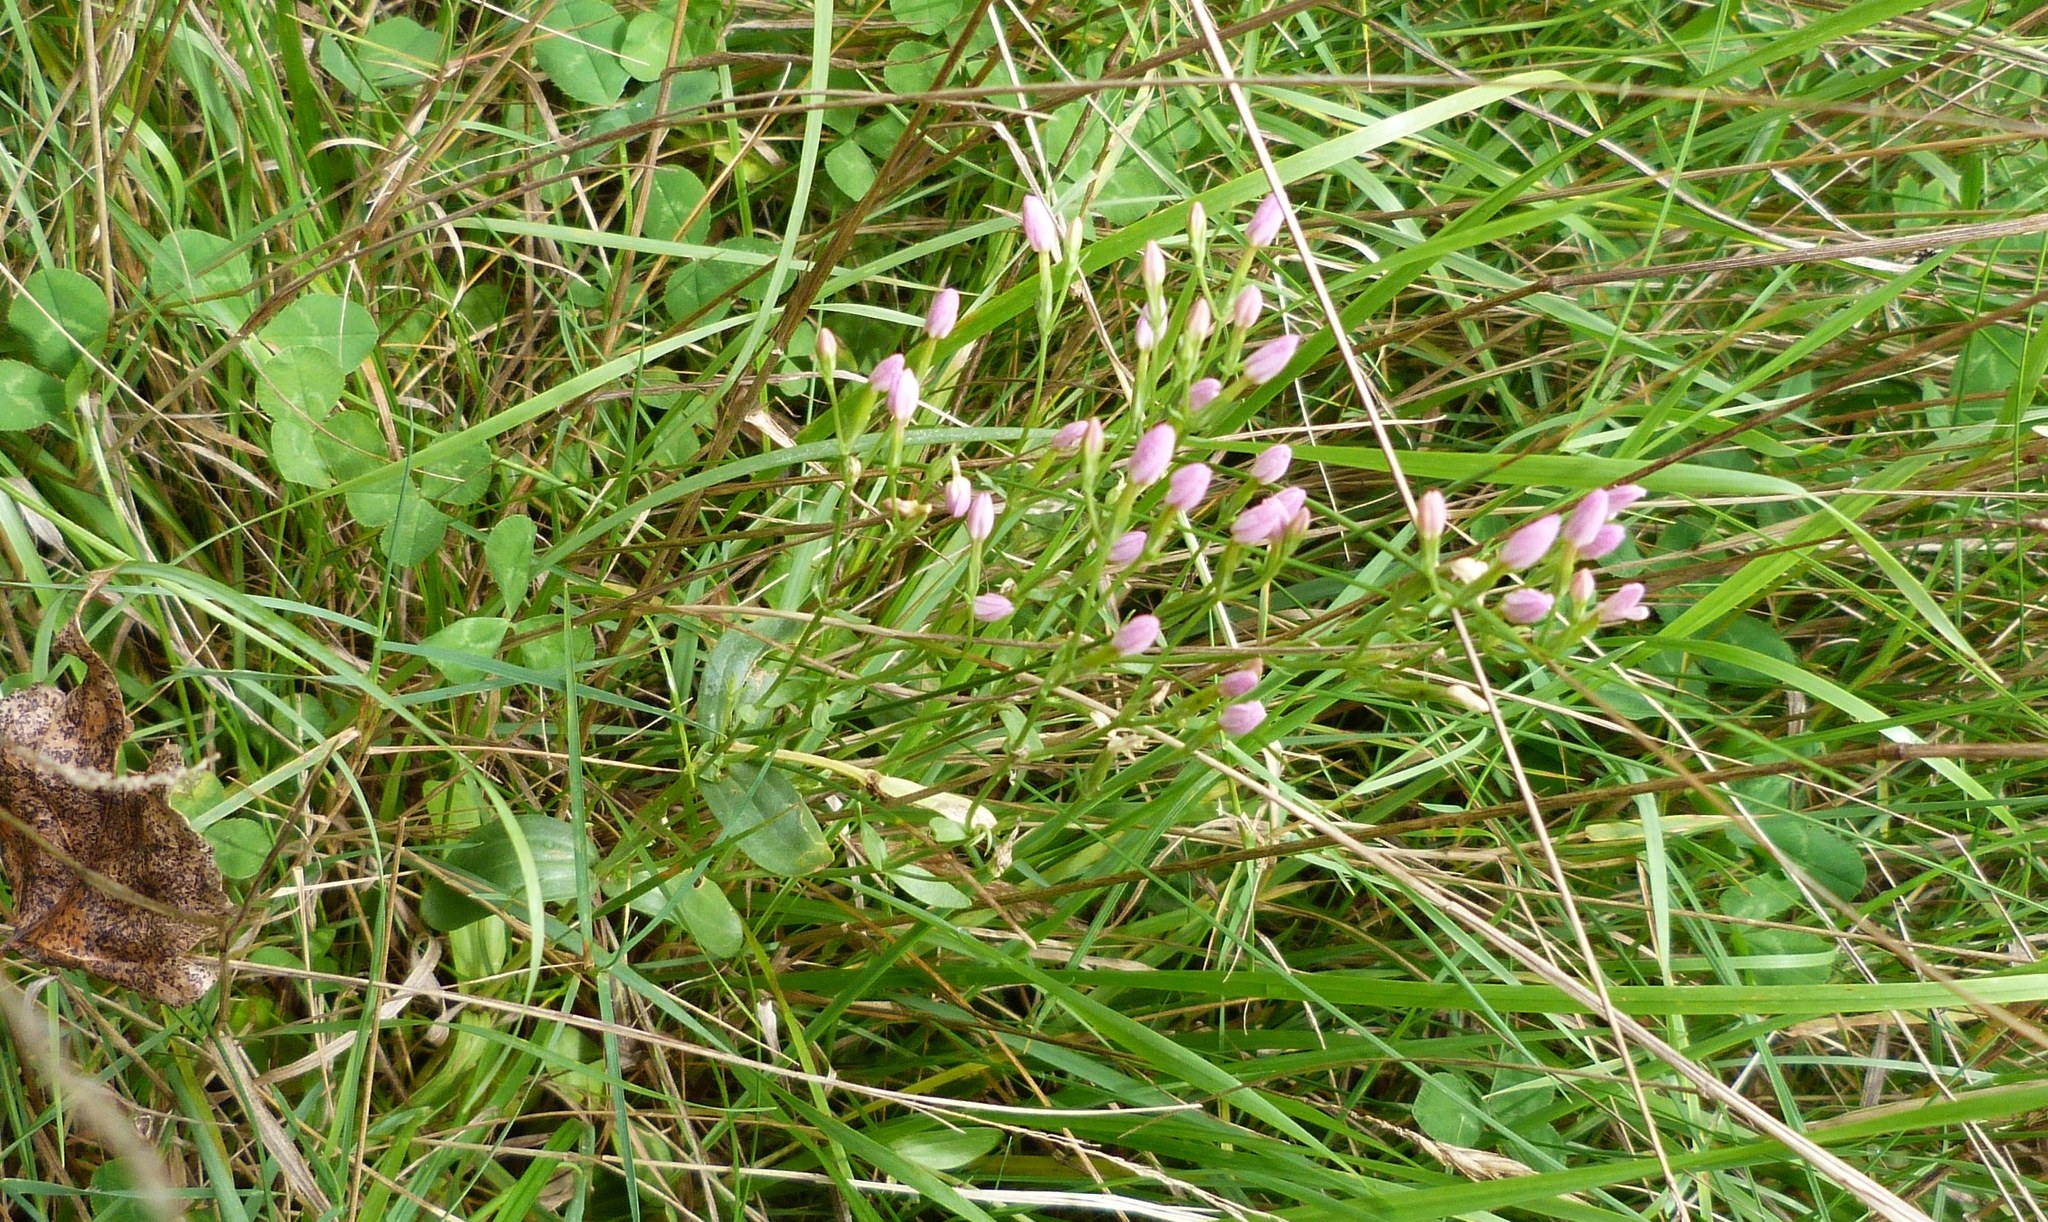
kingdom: Plantae
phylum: Tracheophyta
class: Magnoliopsida
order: Gentianales
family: Gentianaceae
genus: Centaurium
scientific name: Centaurium erythraea
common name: Common centaury
